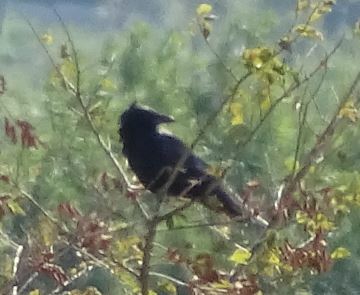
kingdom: Animalia
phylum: Chordata
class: Aves
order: Passeriformes
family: Corvidae
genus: Corvus
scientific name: Corvus corone
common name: Carrion crow
